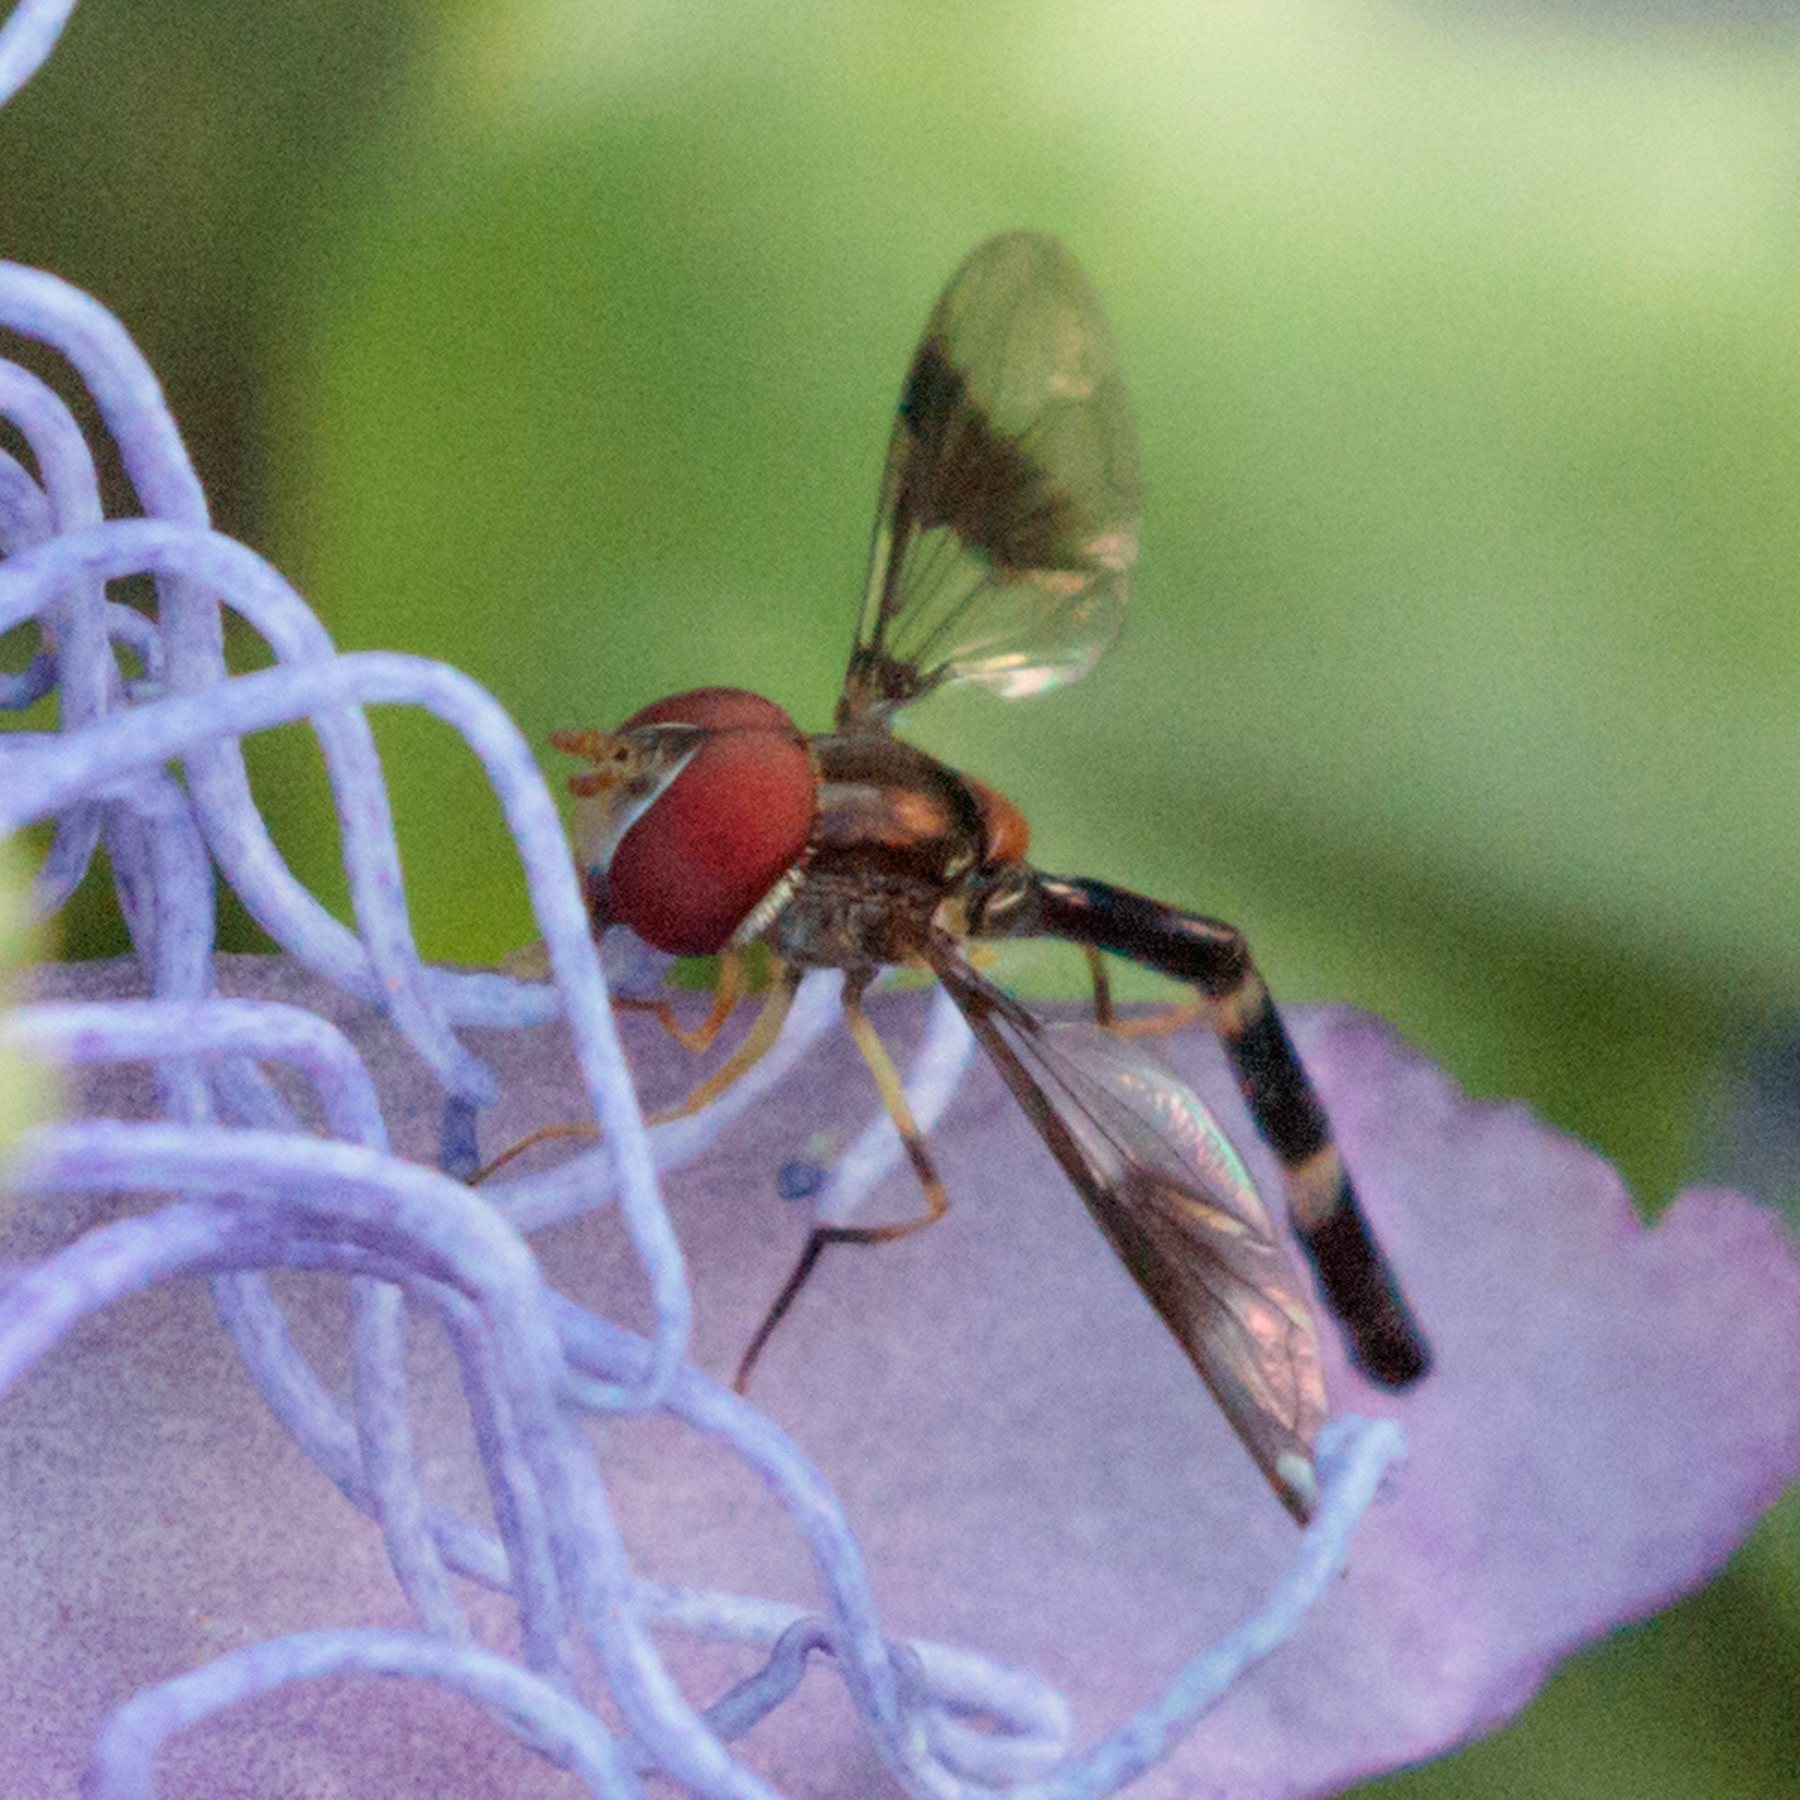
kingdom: Animalia
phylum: Arthropoda
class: Insecta
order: Diptera
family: Syrphidae
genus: Hypocritanus
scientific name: Hypocritanus fascipennis
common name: Eastern band-winged hover fly
